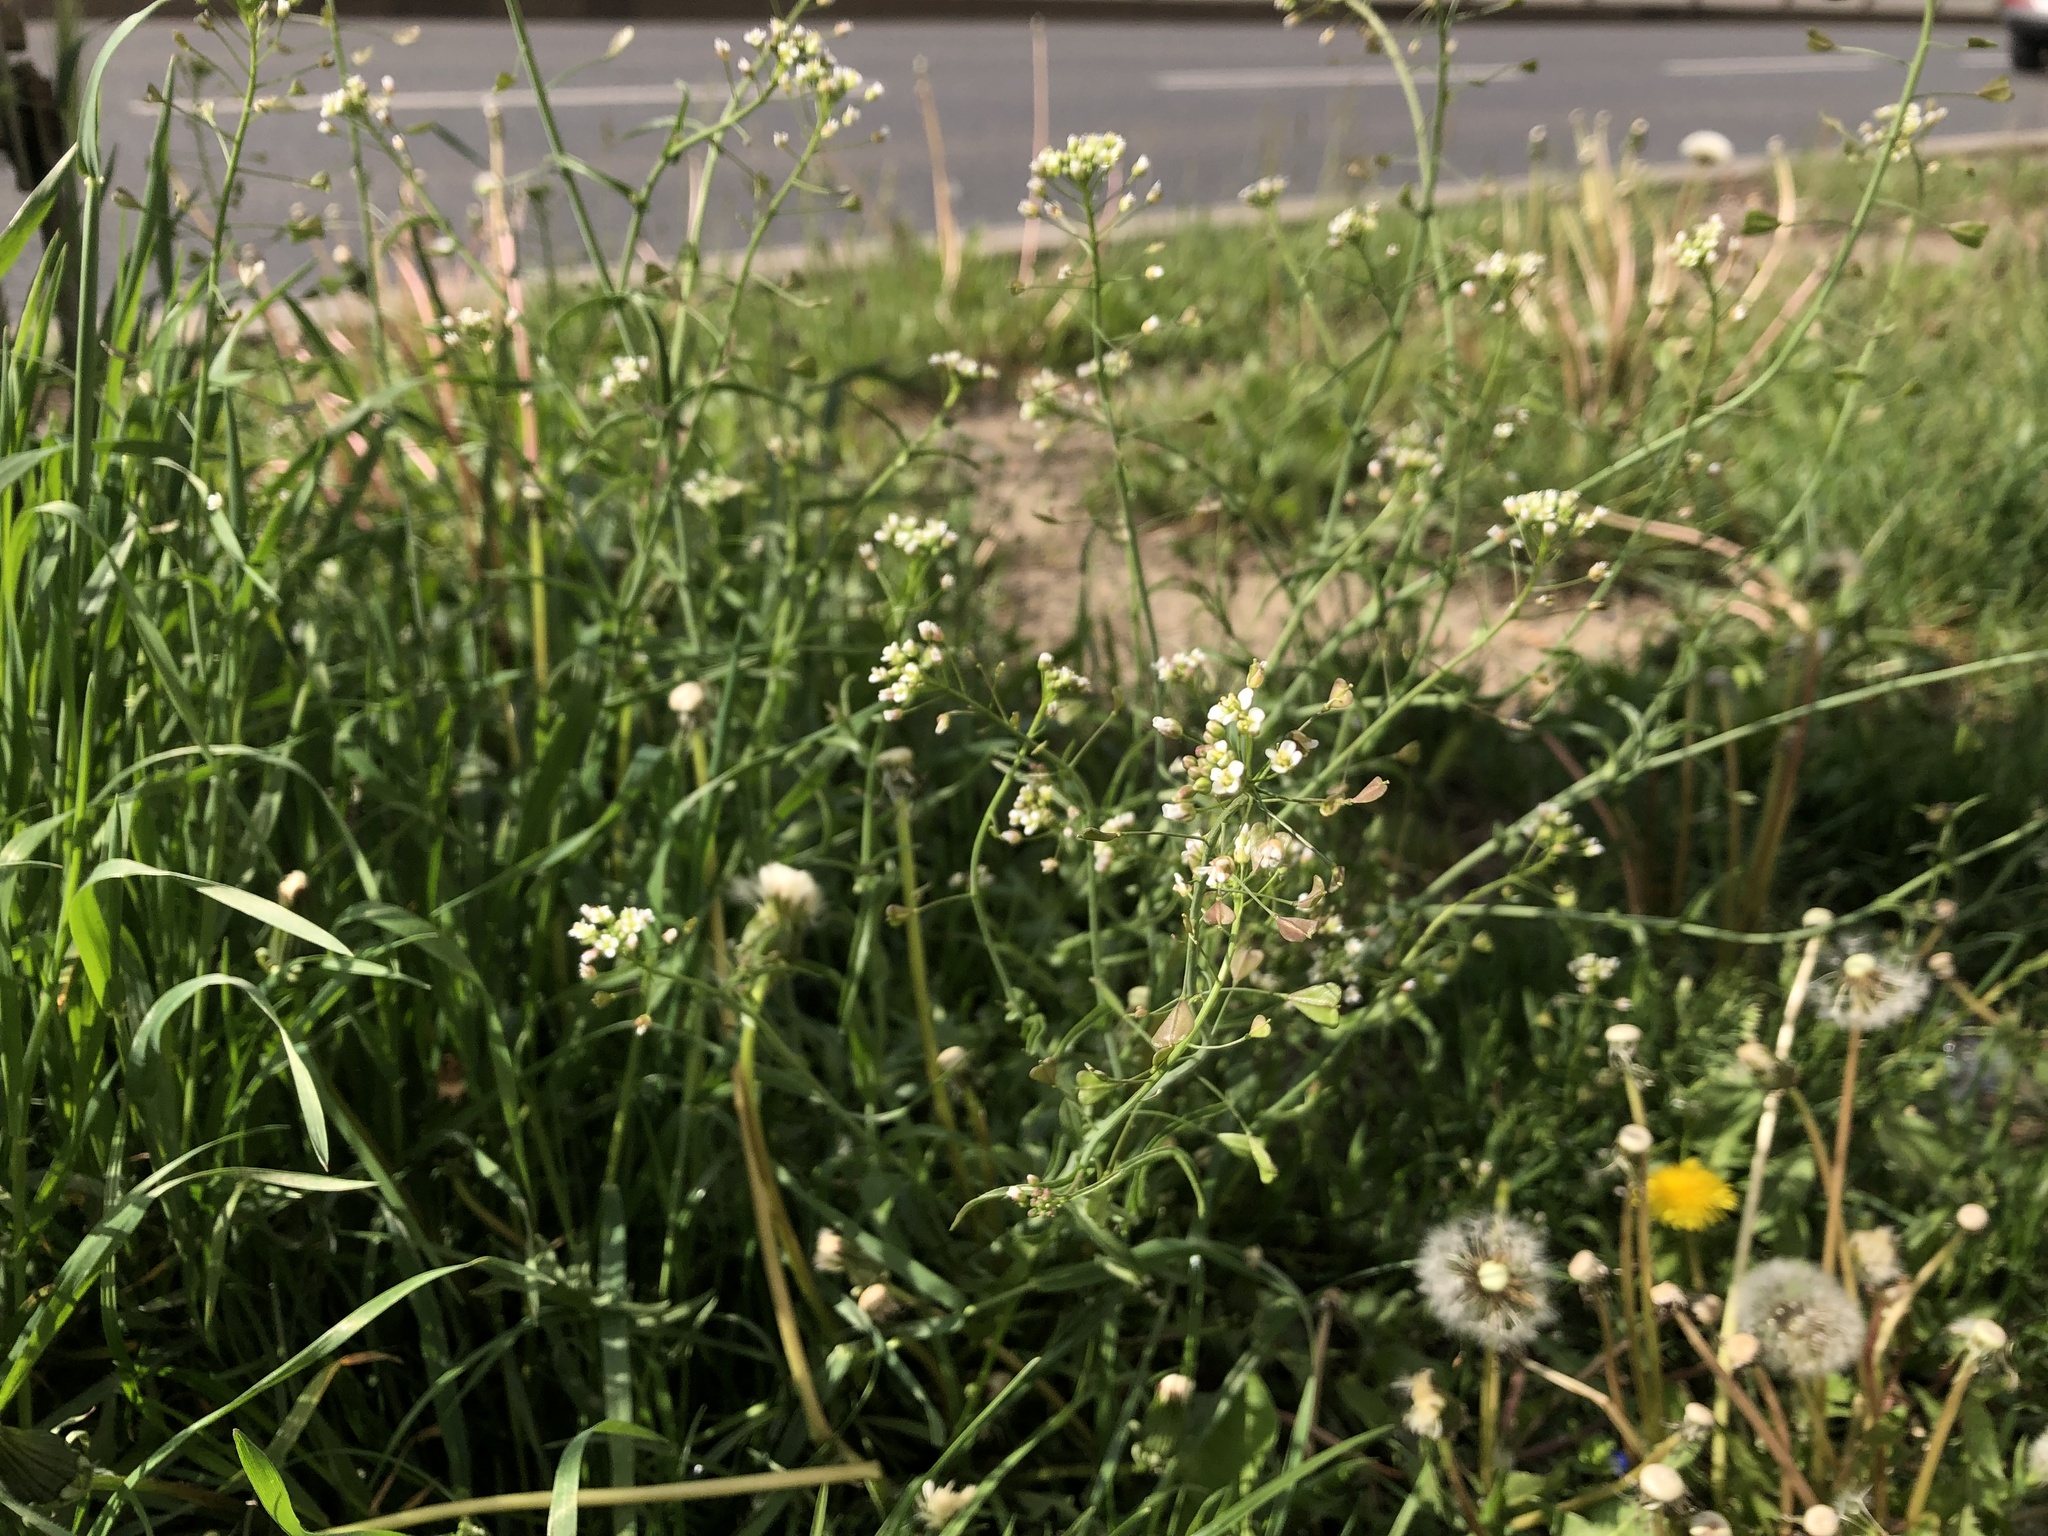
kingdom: Plantae
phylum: Tracheophyta
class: Magnoliopsida
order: Brassicales
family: Brassicaceae
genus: Capsella
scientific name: Capsella bursa-pastoris
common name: Shepherd's purse
